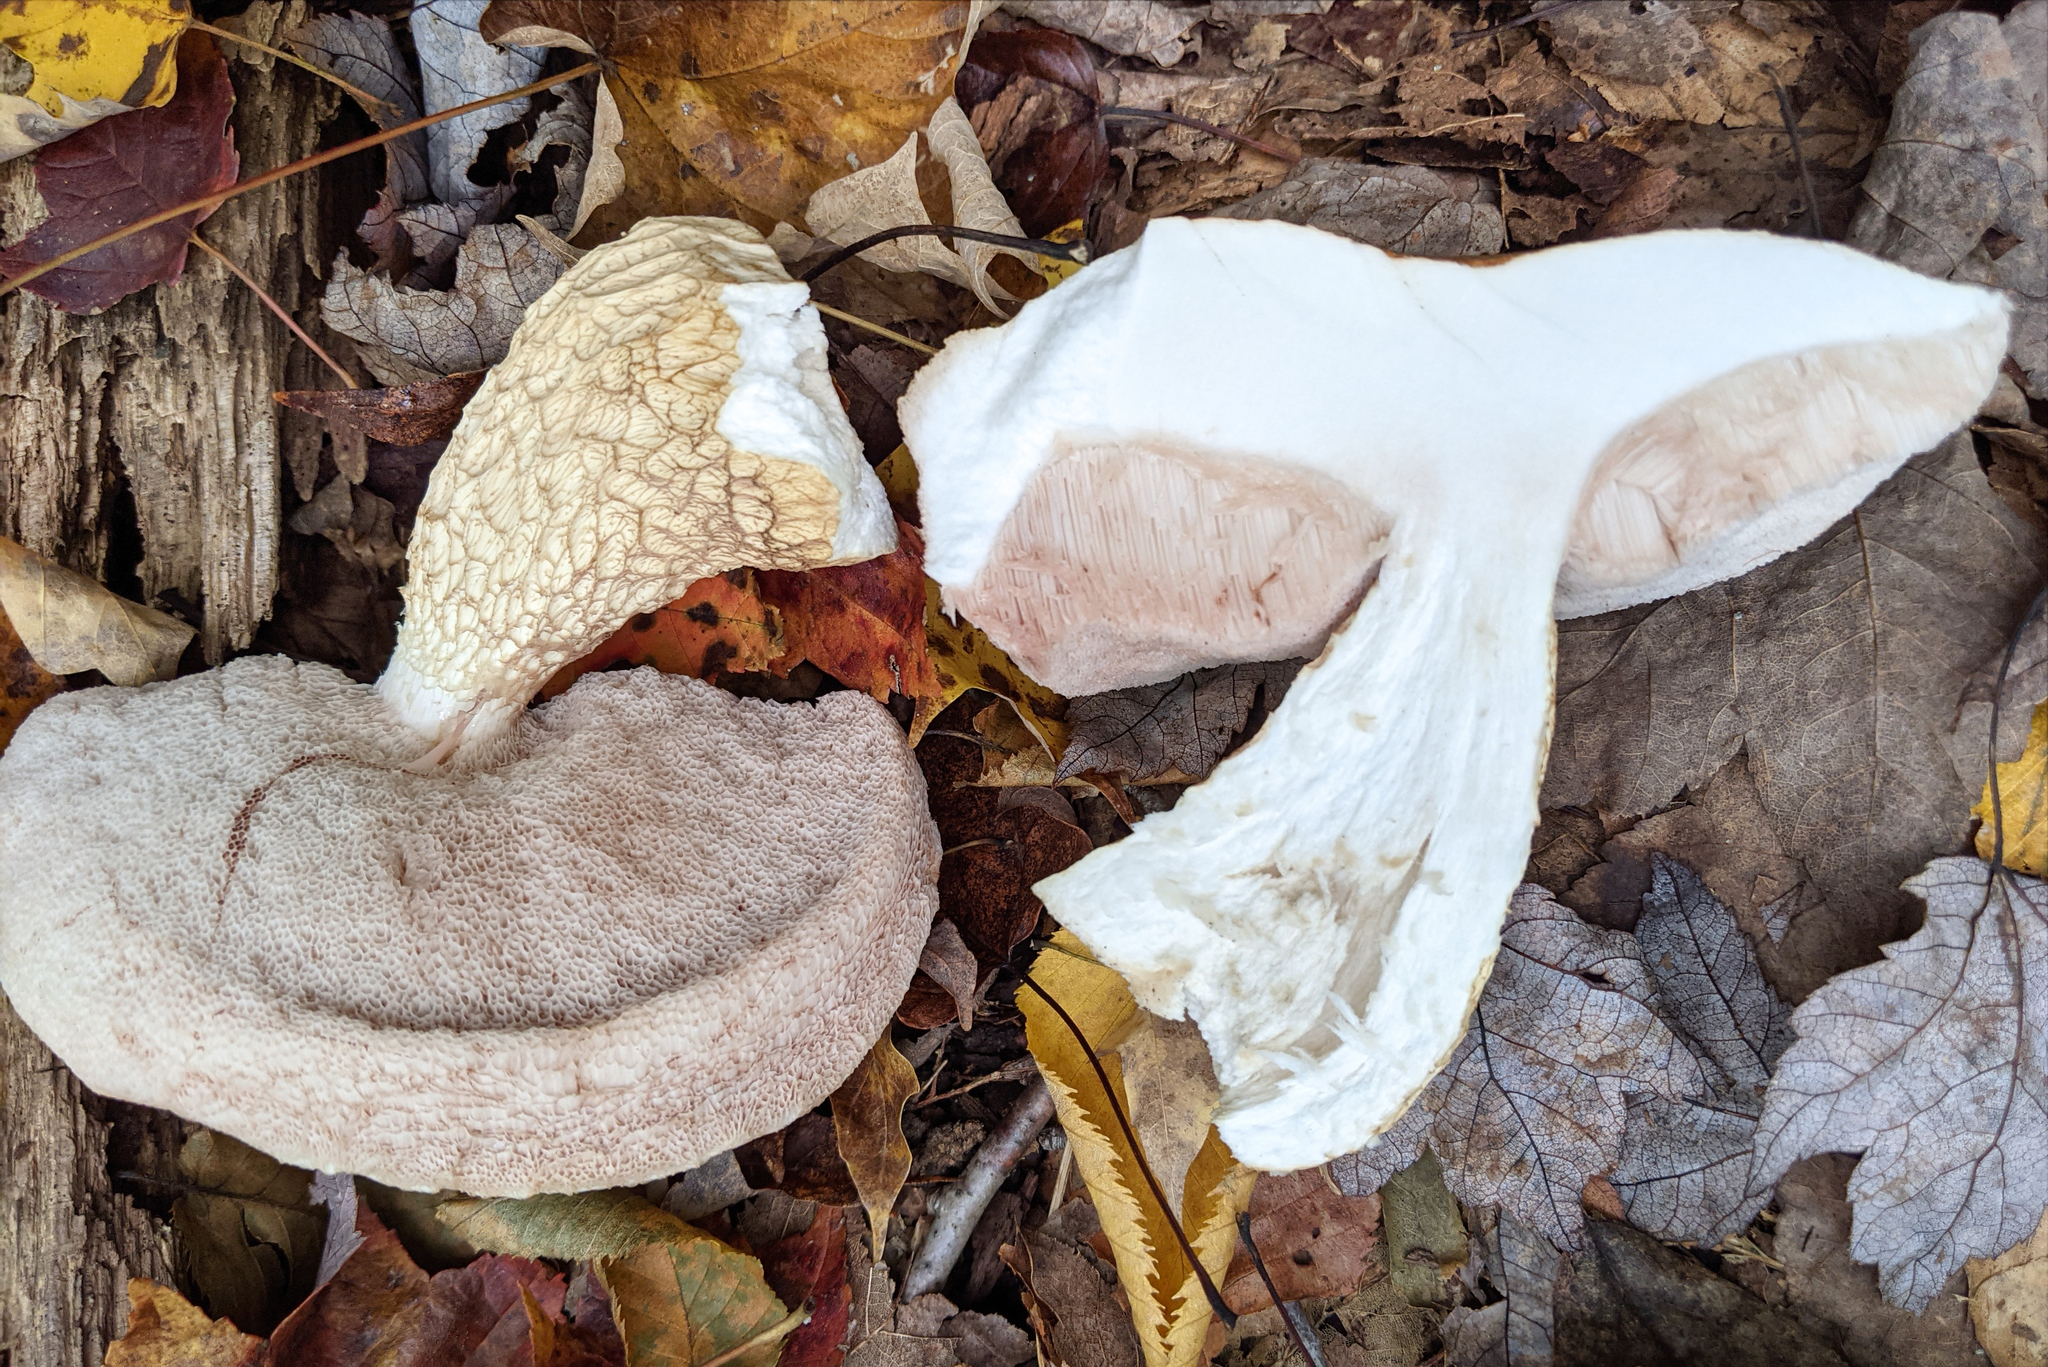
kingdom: Fungi
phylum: Basidiomycota
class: Agaricomycetes
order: Boletales
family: Boletaceae
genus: Tylopilus
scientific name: Tylopilus felleus
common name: Bitter bolete
